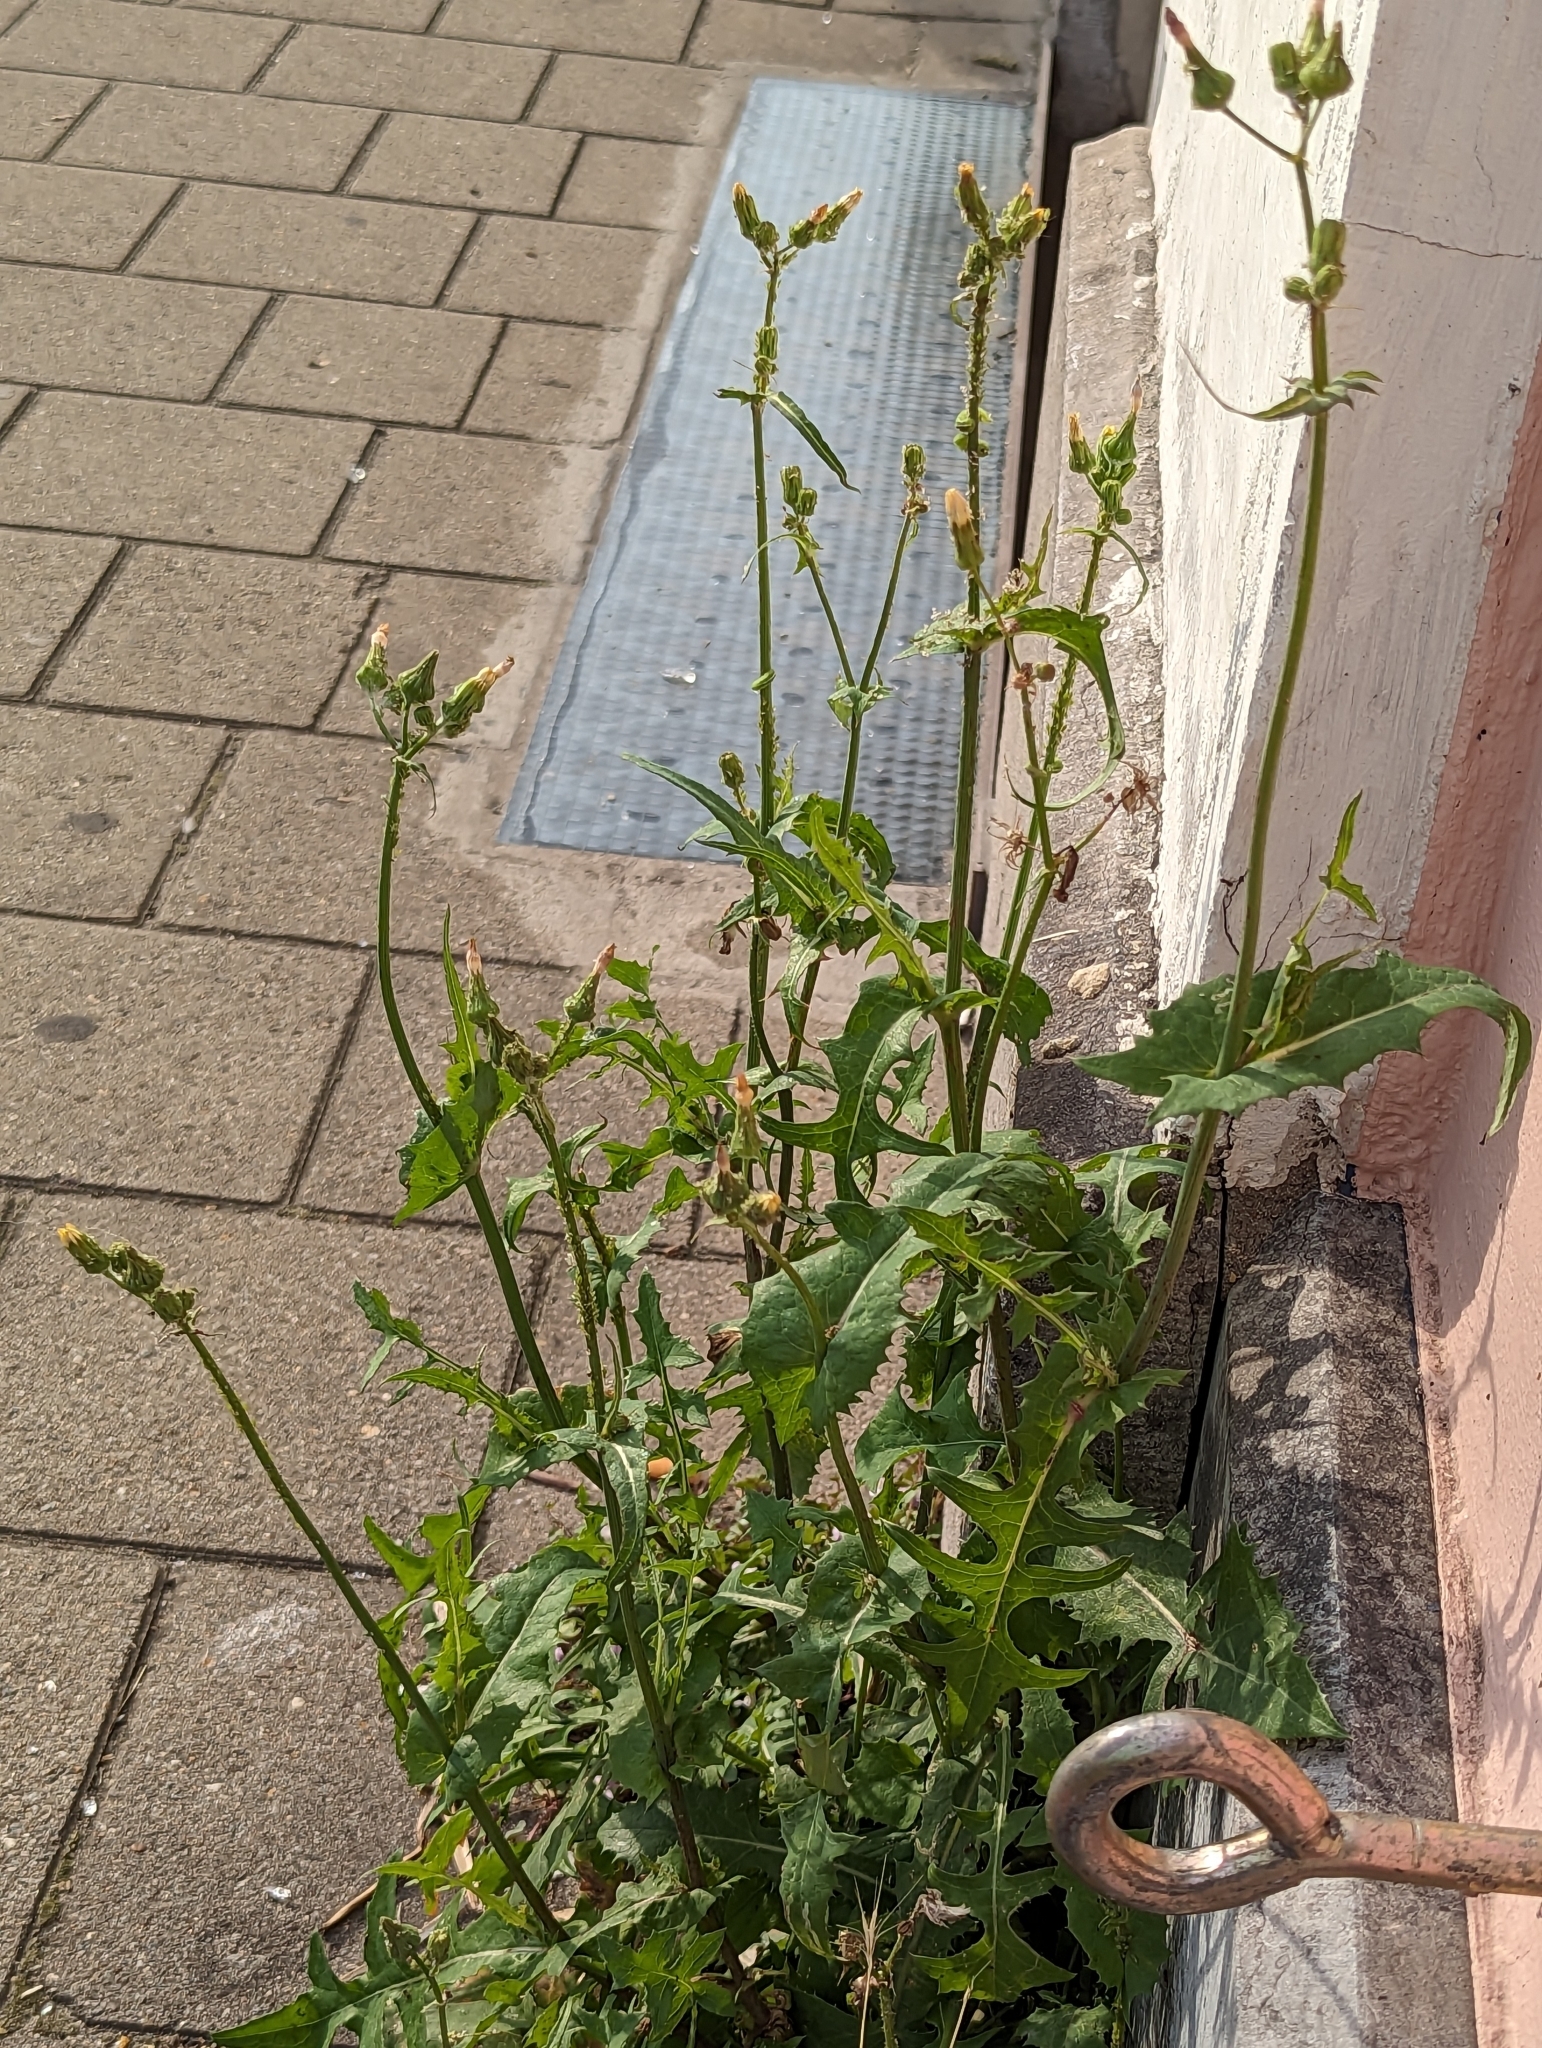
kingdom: Plantae
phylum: Tracheophyta
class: Magnoliopsida
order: Asterales
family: Asteraceae
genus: Sonchus
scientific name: Sonchus oleraceus
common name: Common sowthistle
